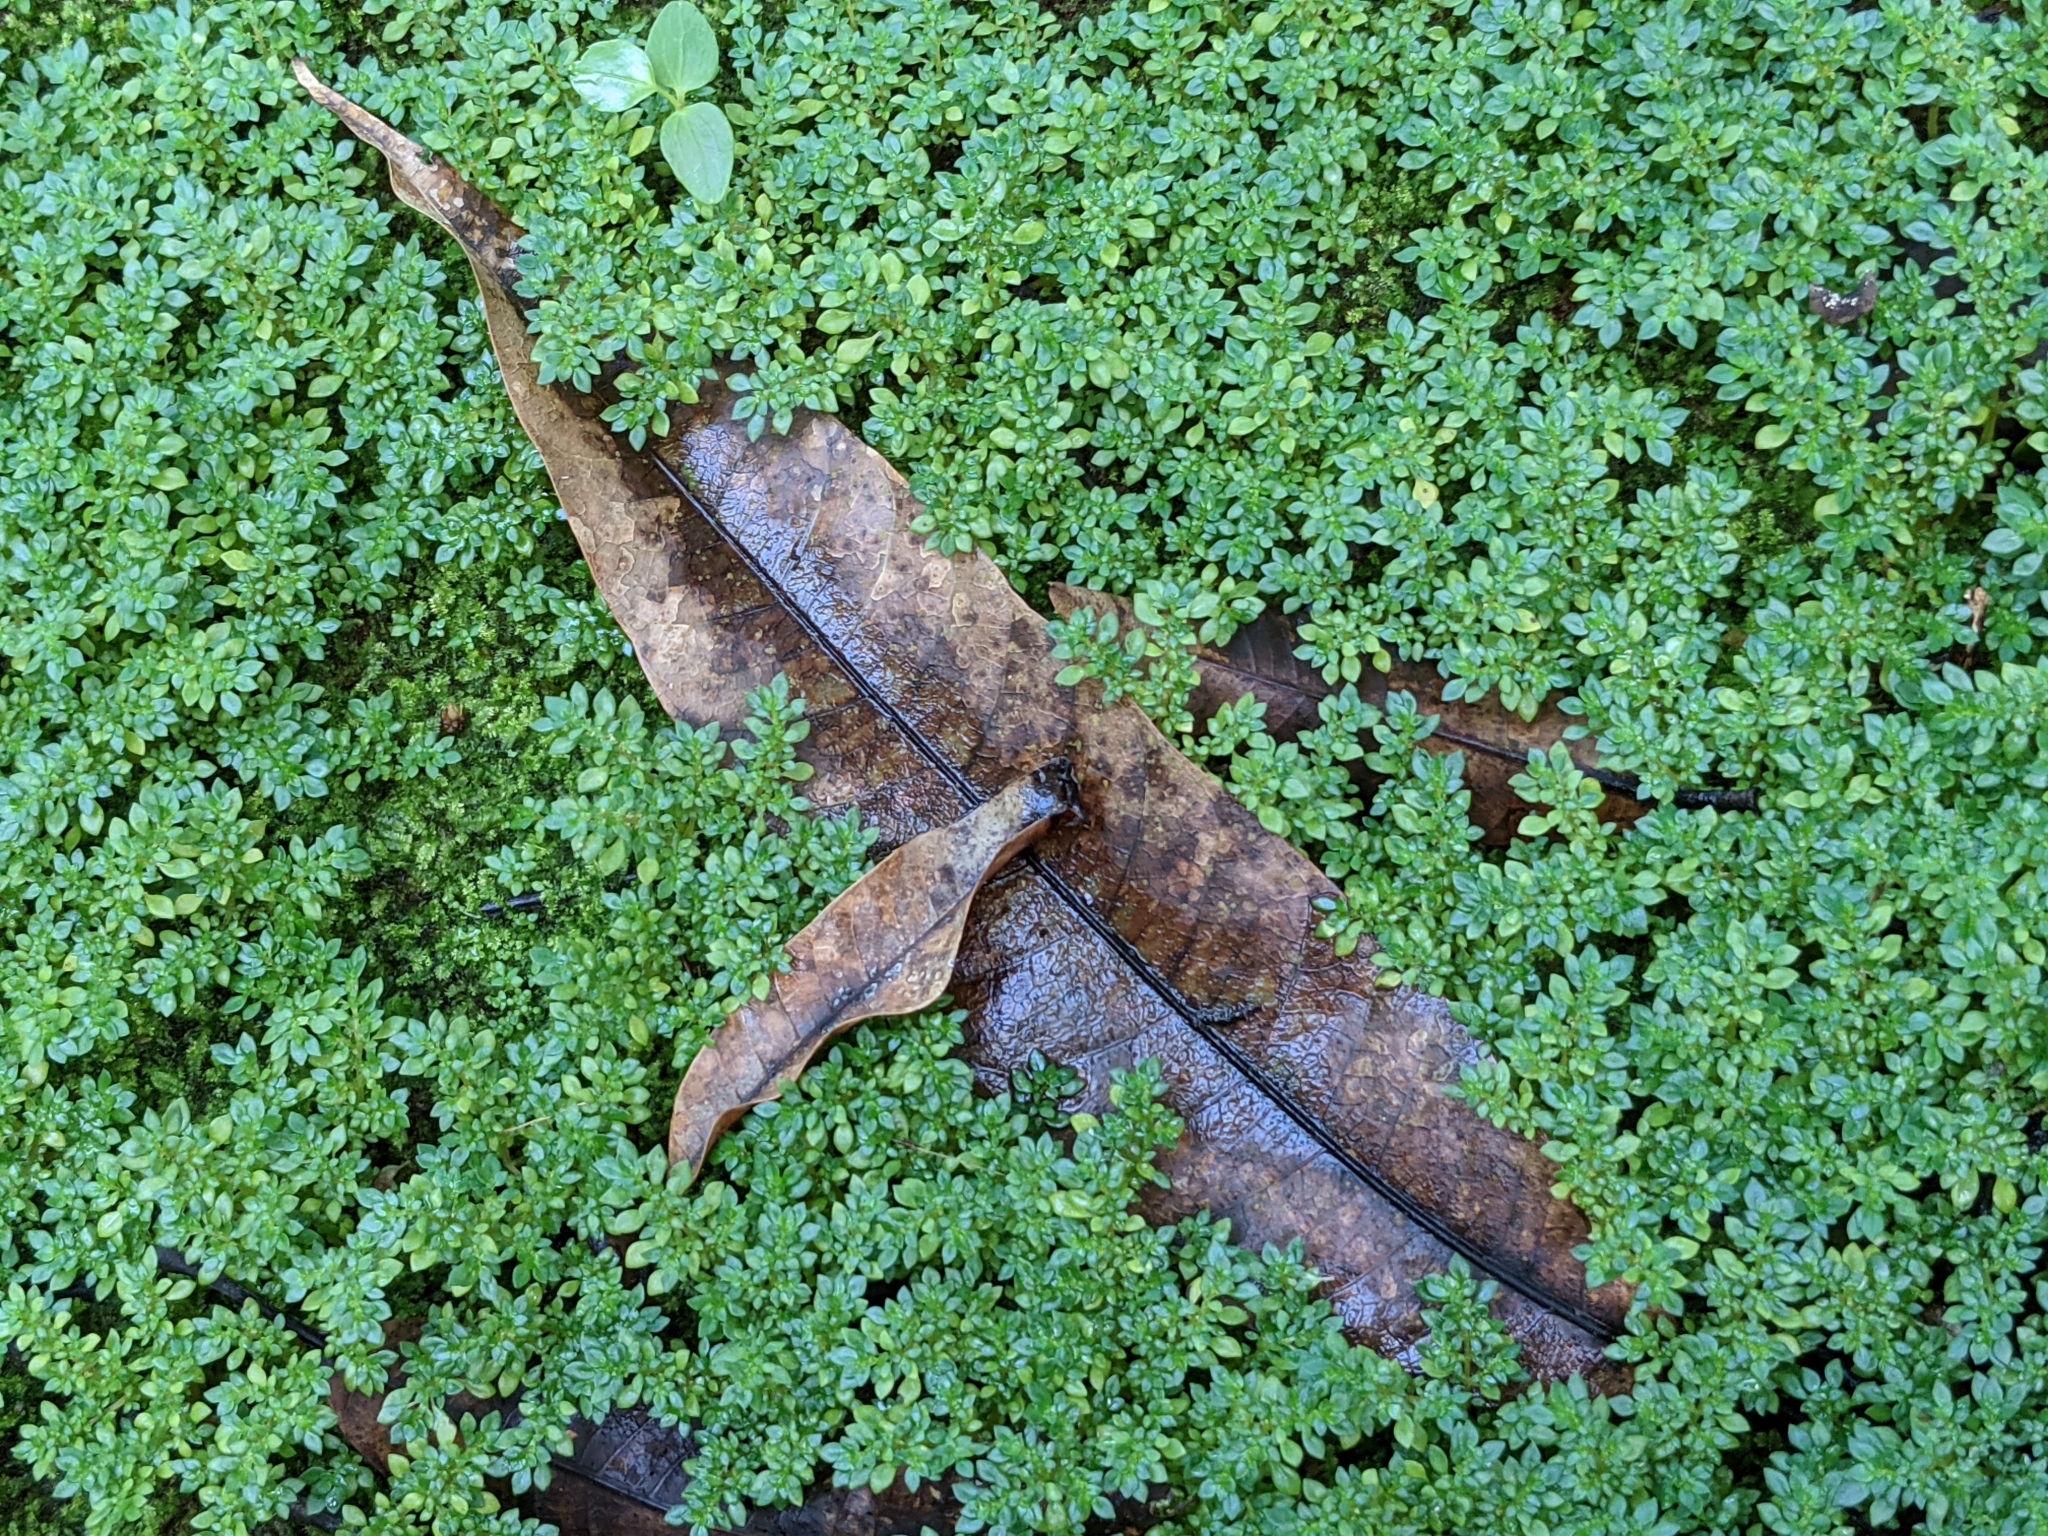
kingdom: Plantae
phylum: Tracheophyta
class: Magnoliopsida
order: Rosales
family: Urticaceae
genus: Pilea
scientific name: Pilea microphylla
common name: Artillery-plant
